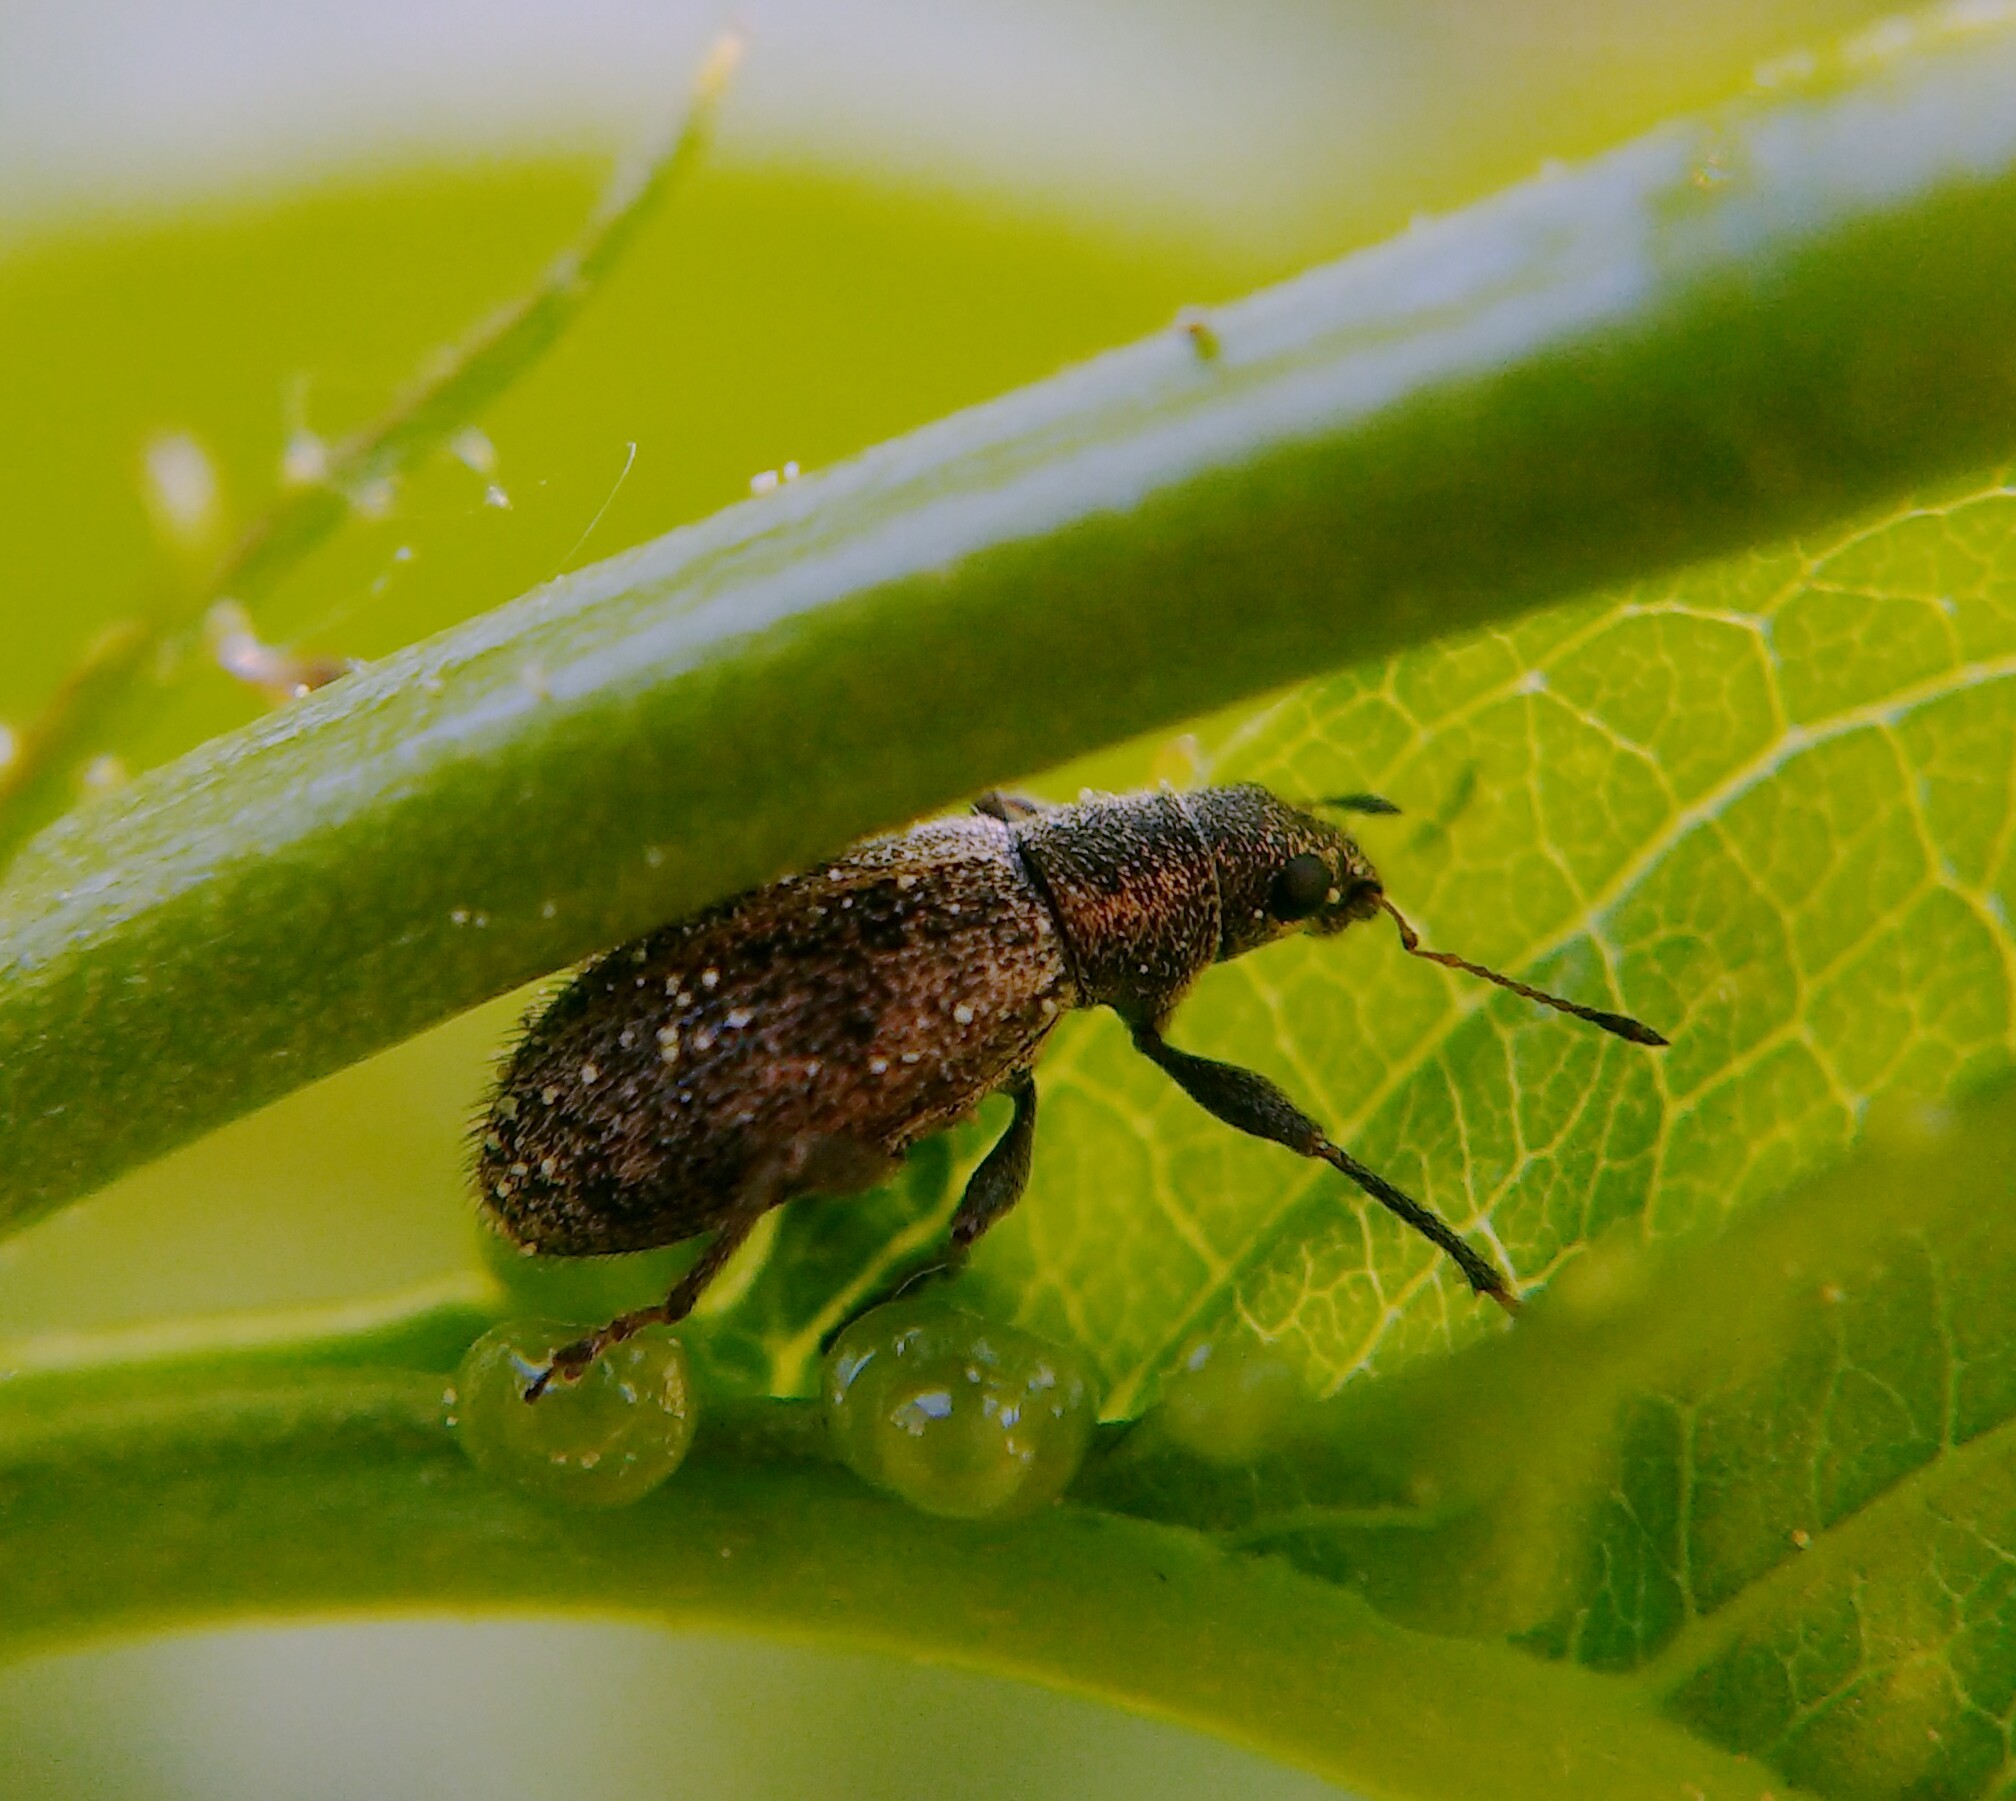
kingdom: Animalia
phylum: Arthropoda
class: Insecta
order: Coleoptera
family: Curculionidae
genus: Polydrusus
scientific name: Polydrusus inustus
